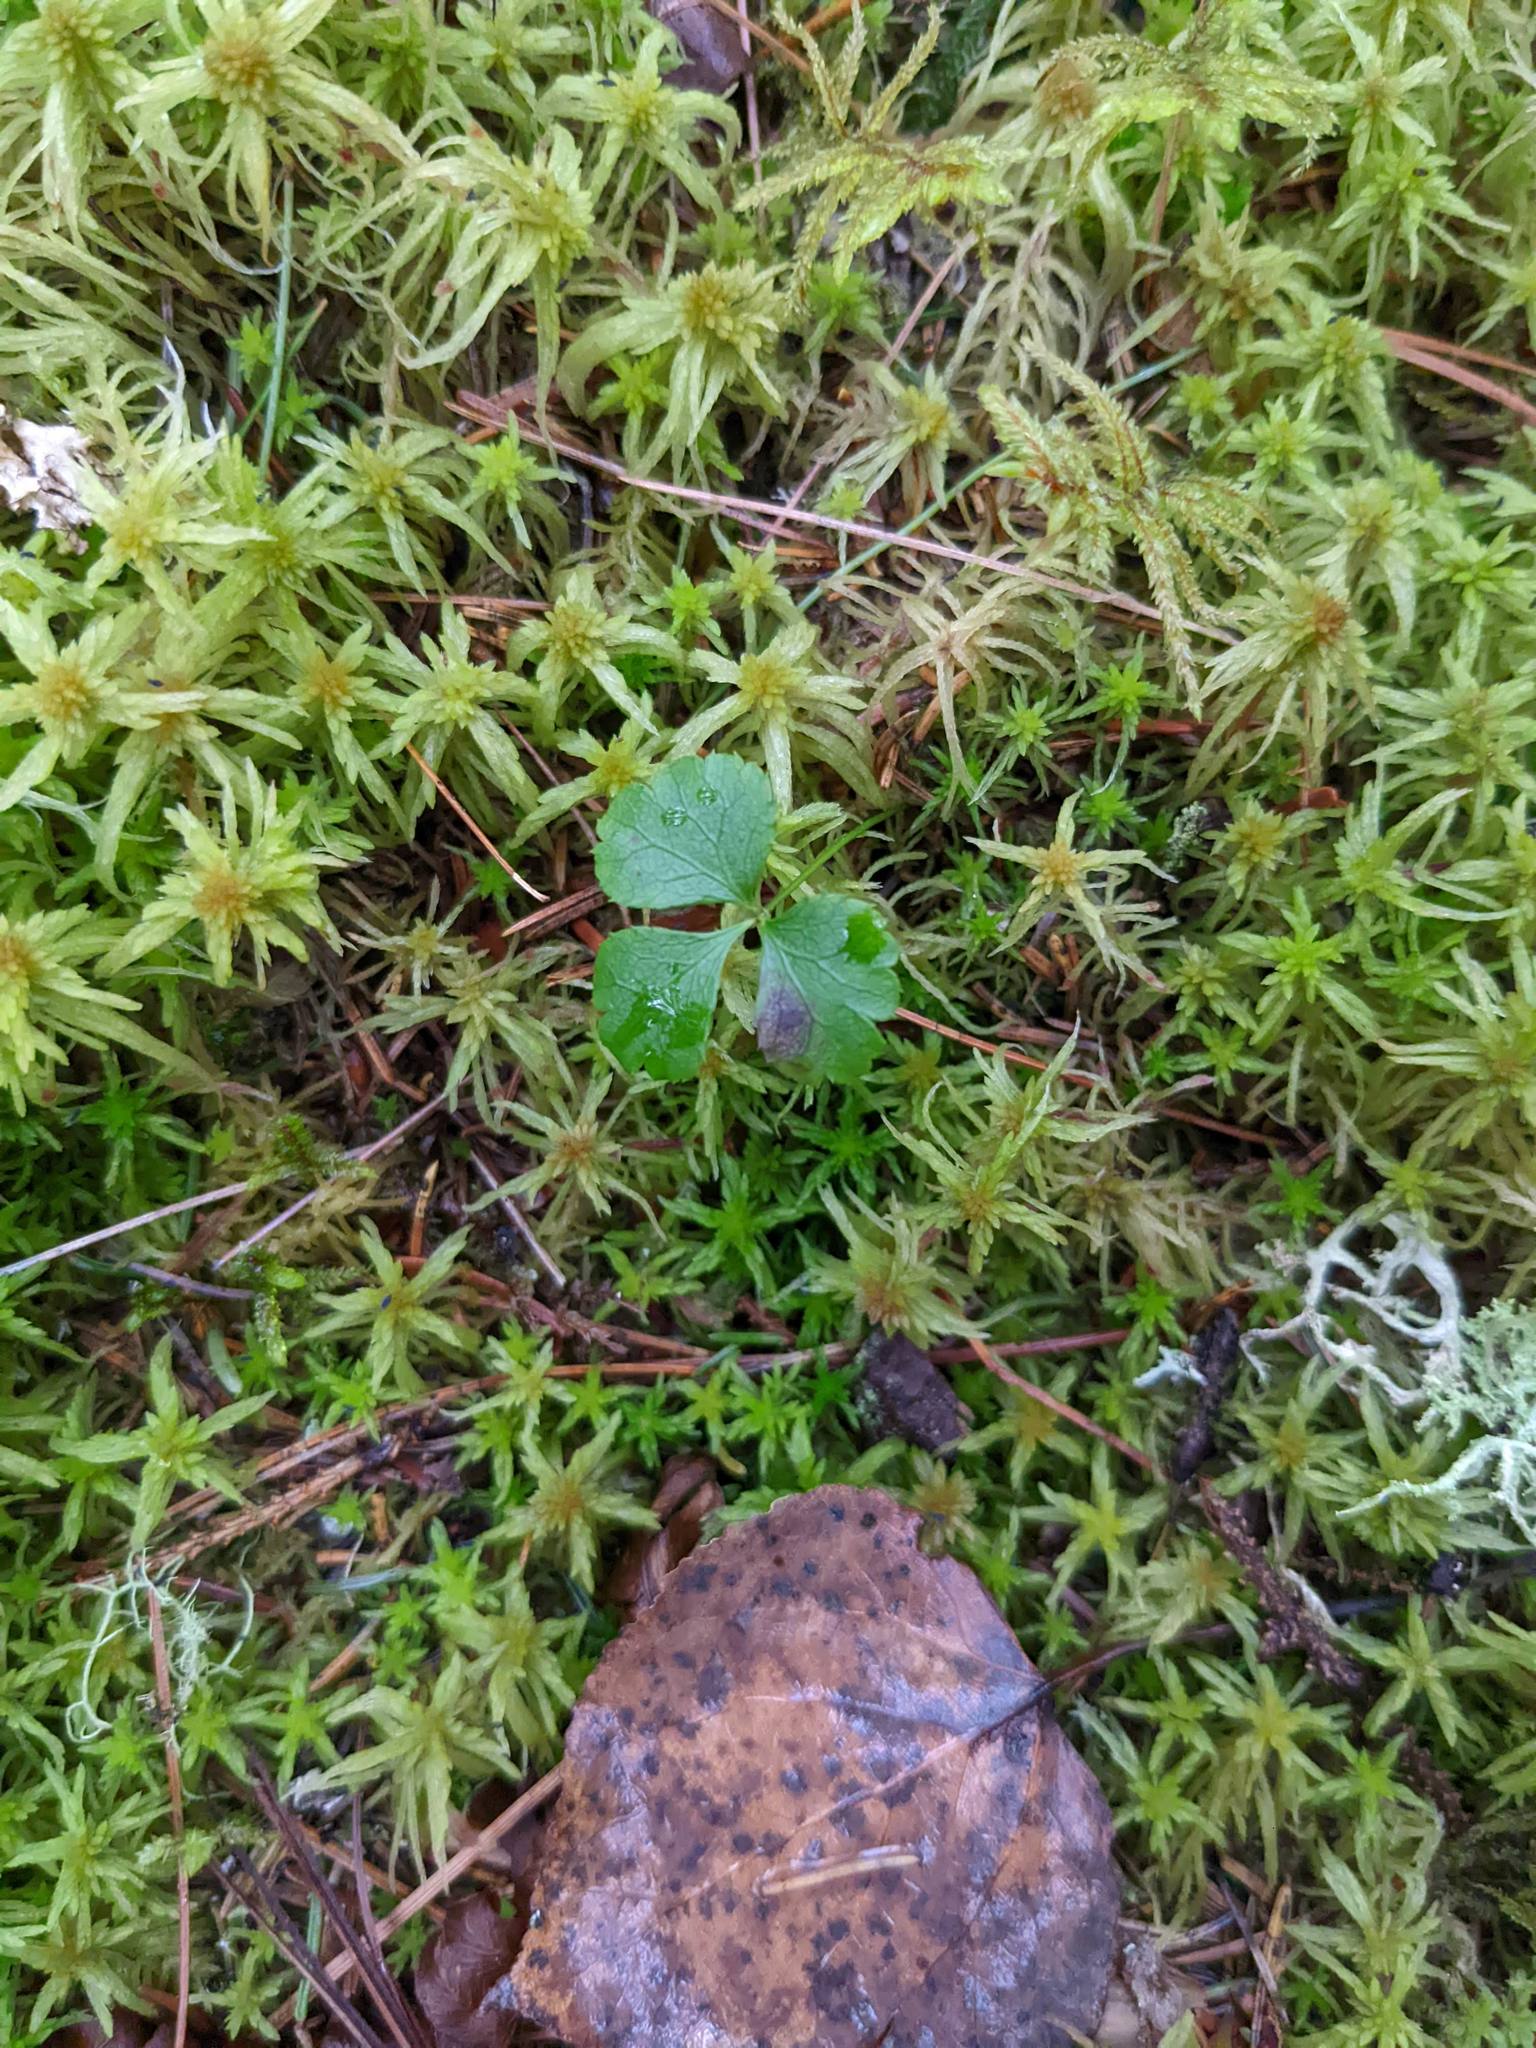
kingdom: Plantae
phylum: Tracheophyta
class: Magnoliopsida
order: Ranunculales
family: Ranunculaceae
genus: Coptis
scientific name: Coptis trifolia
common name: Canker-root
